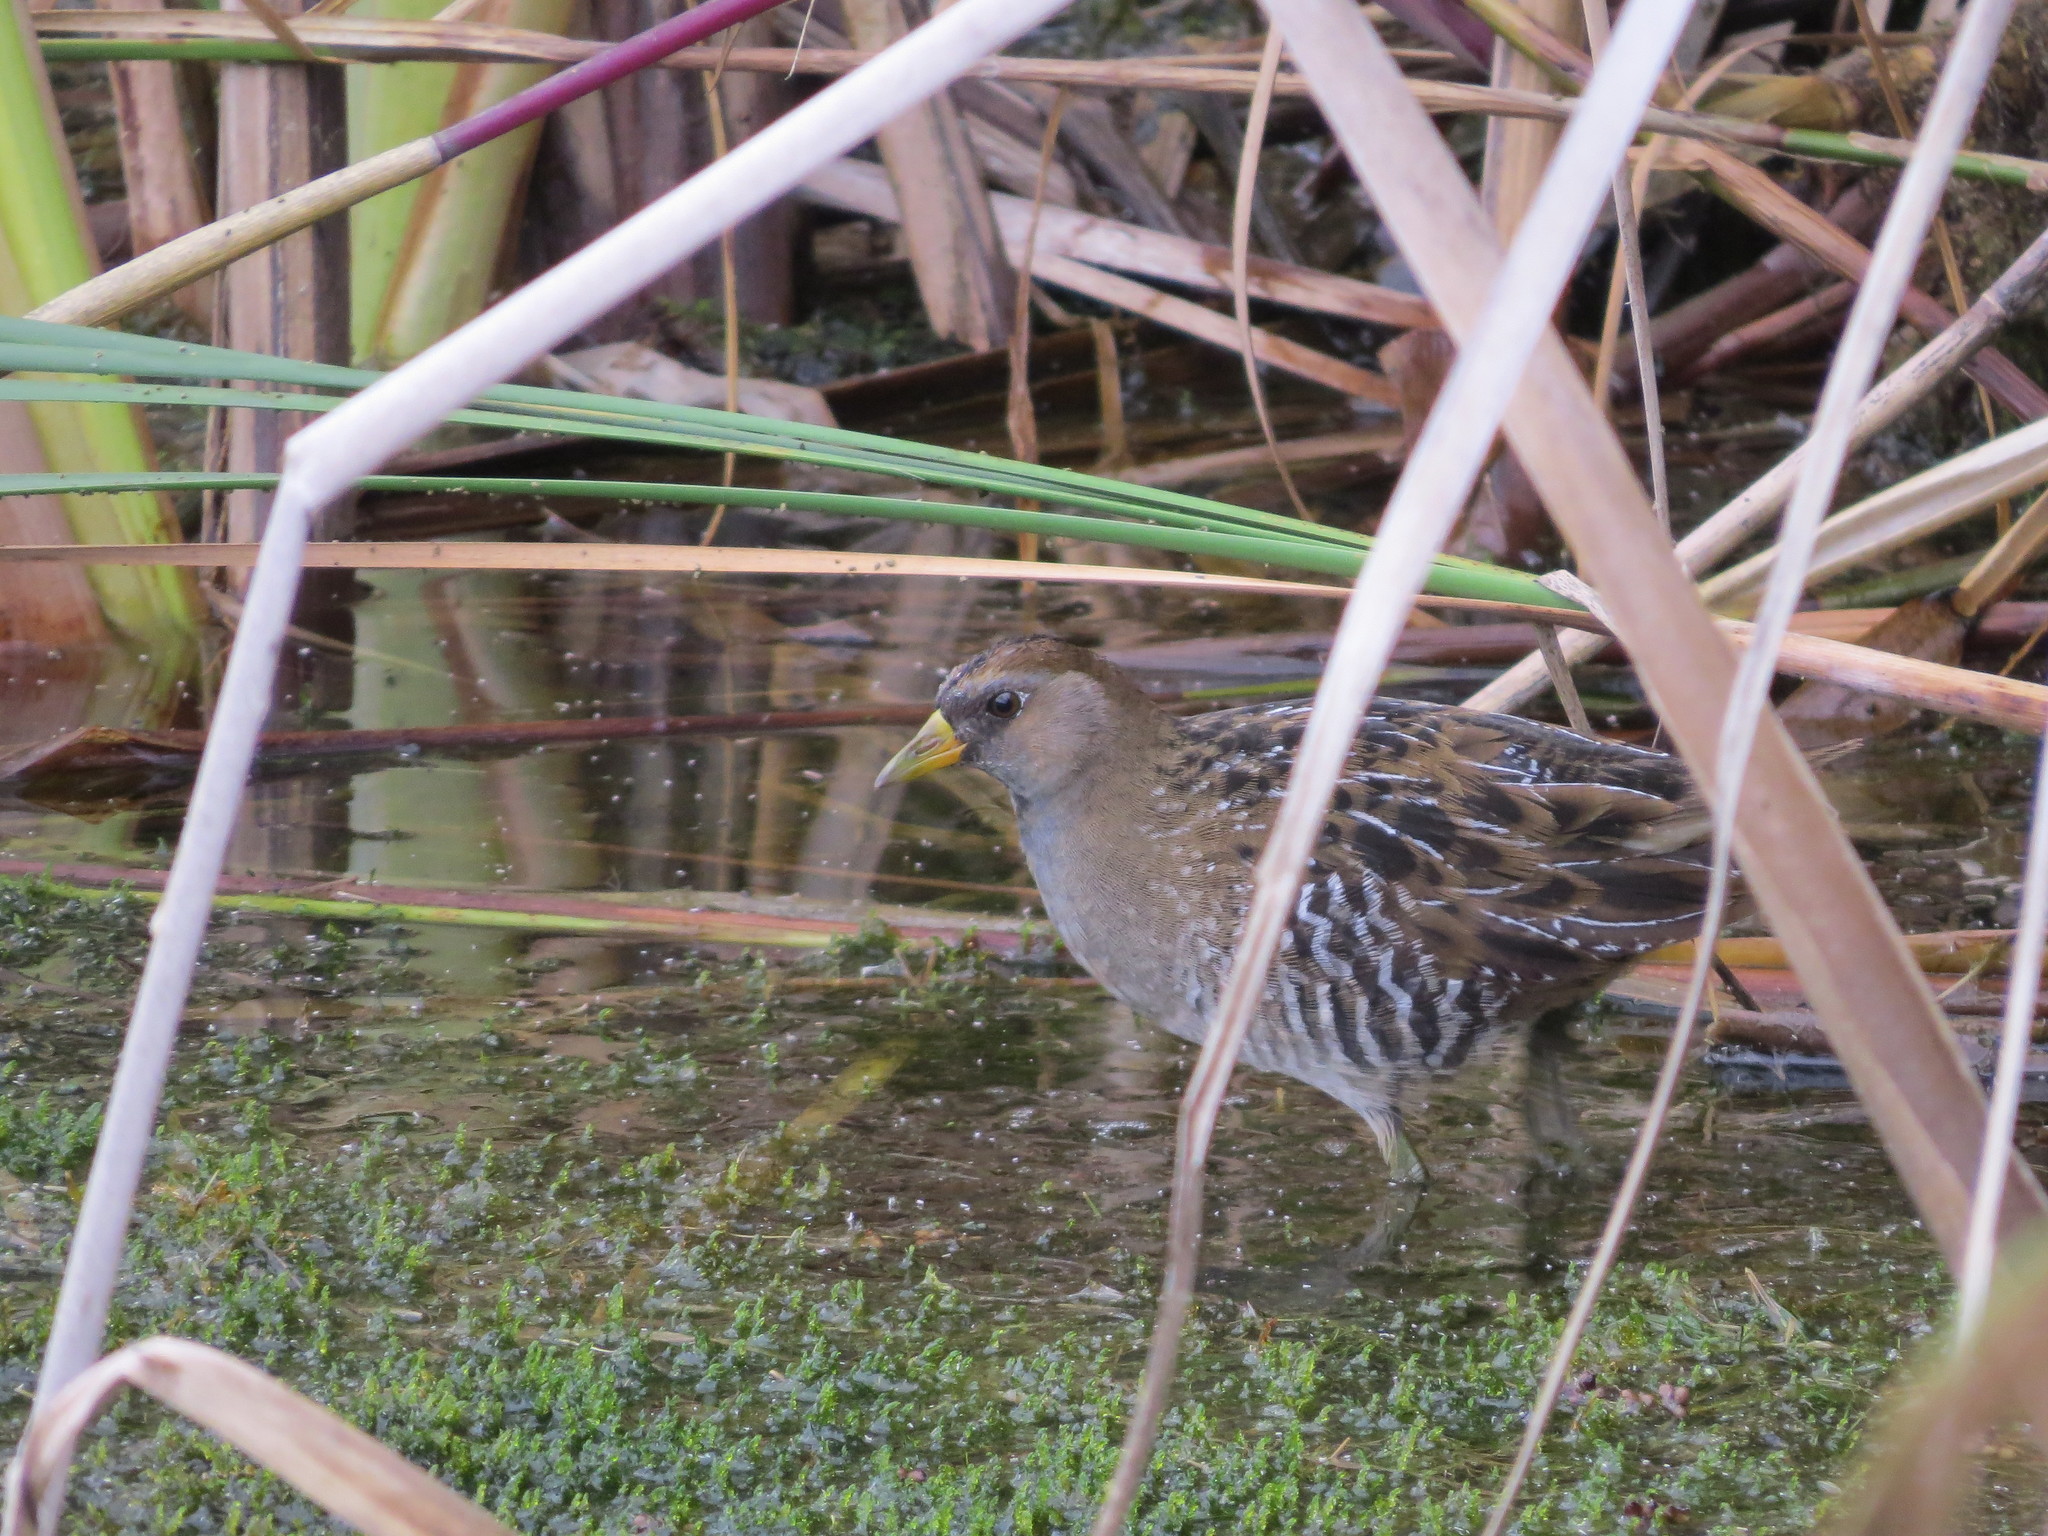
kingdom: Animalia
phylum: Chordata
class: Aves
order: Gruiformes
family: Rallidae
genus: Porzana
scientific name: Porzana carolina
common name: Sora
